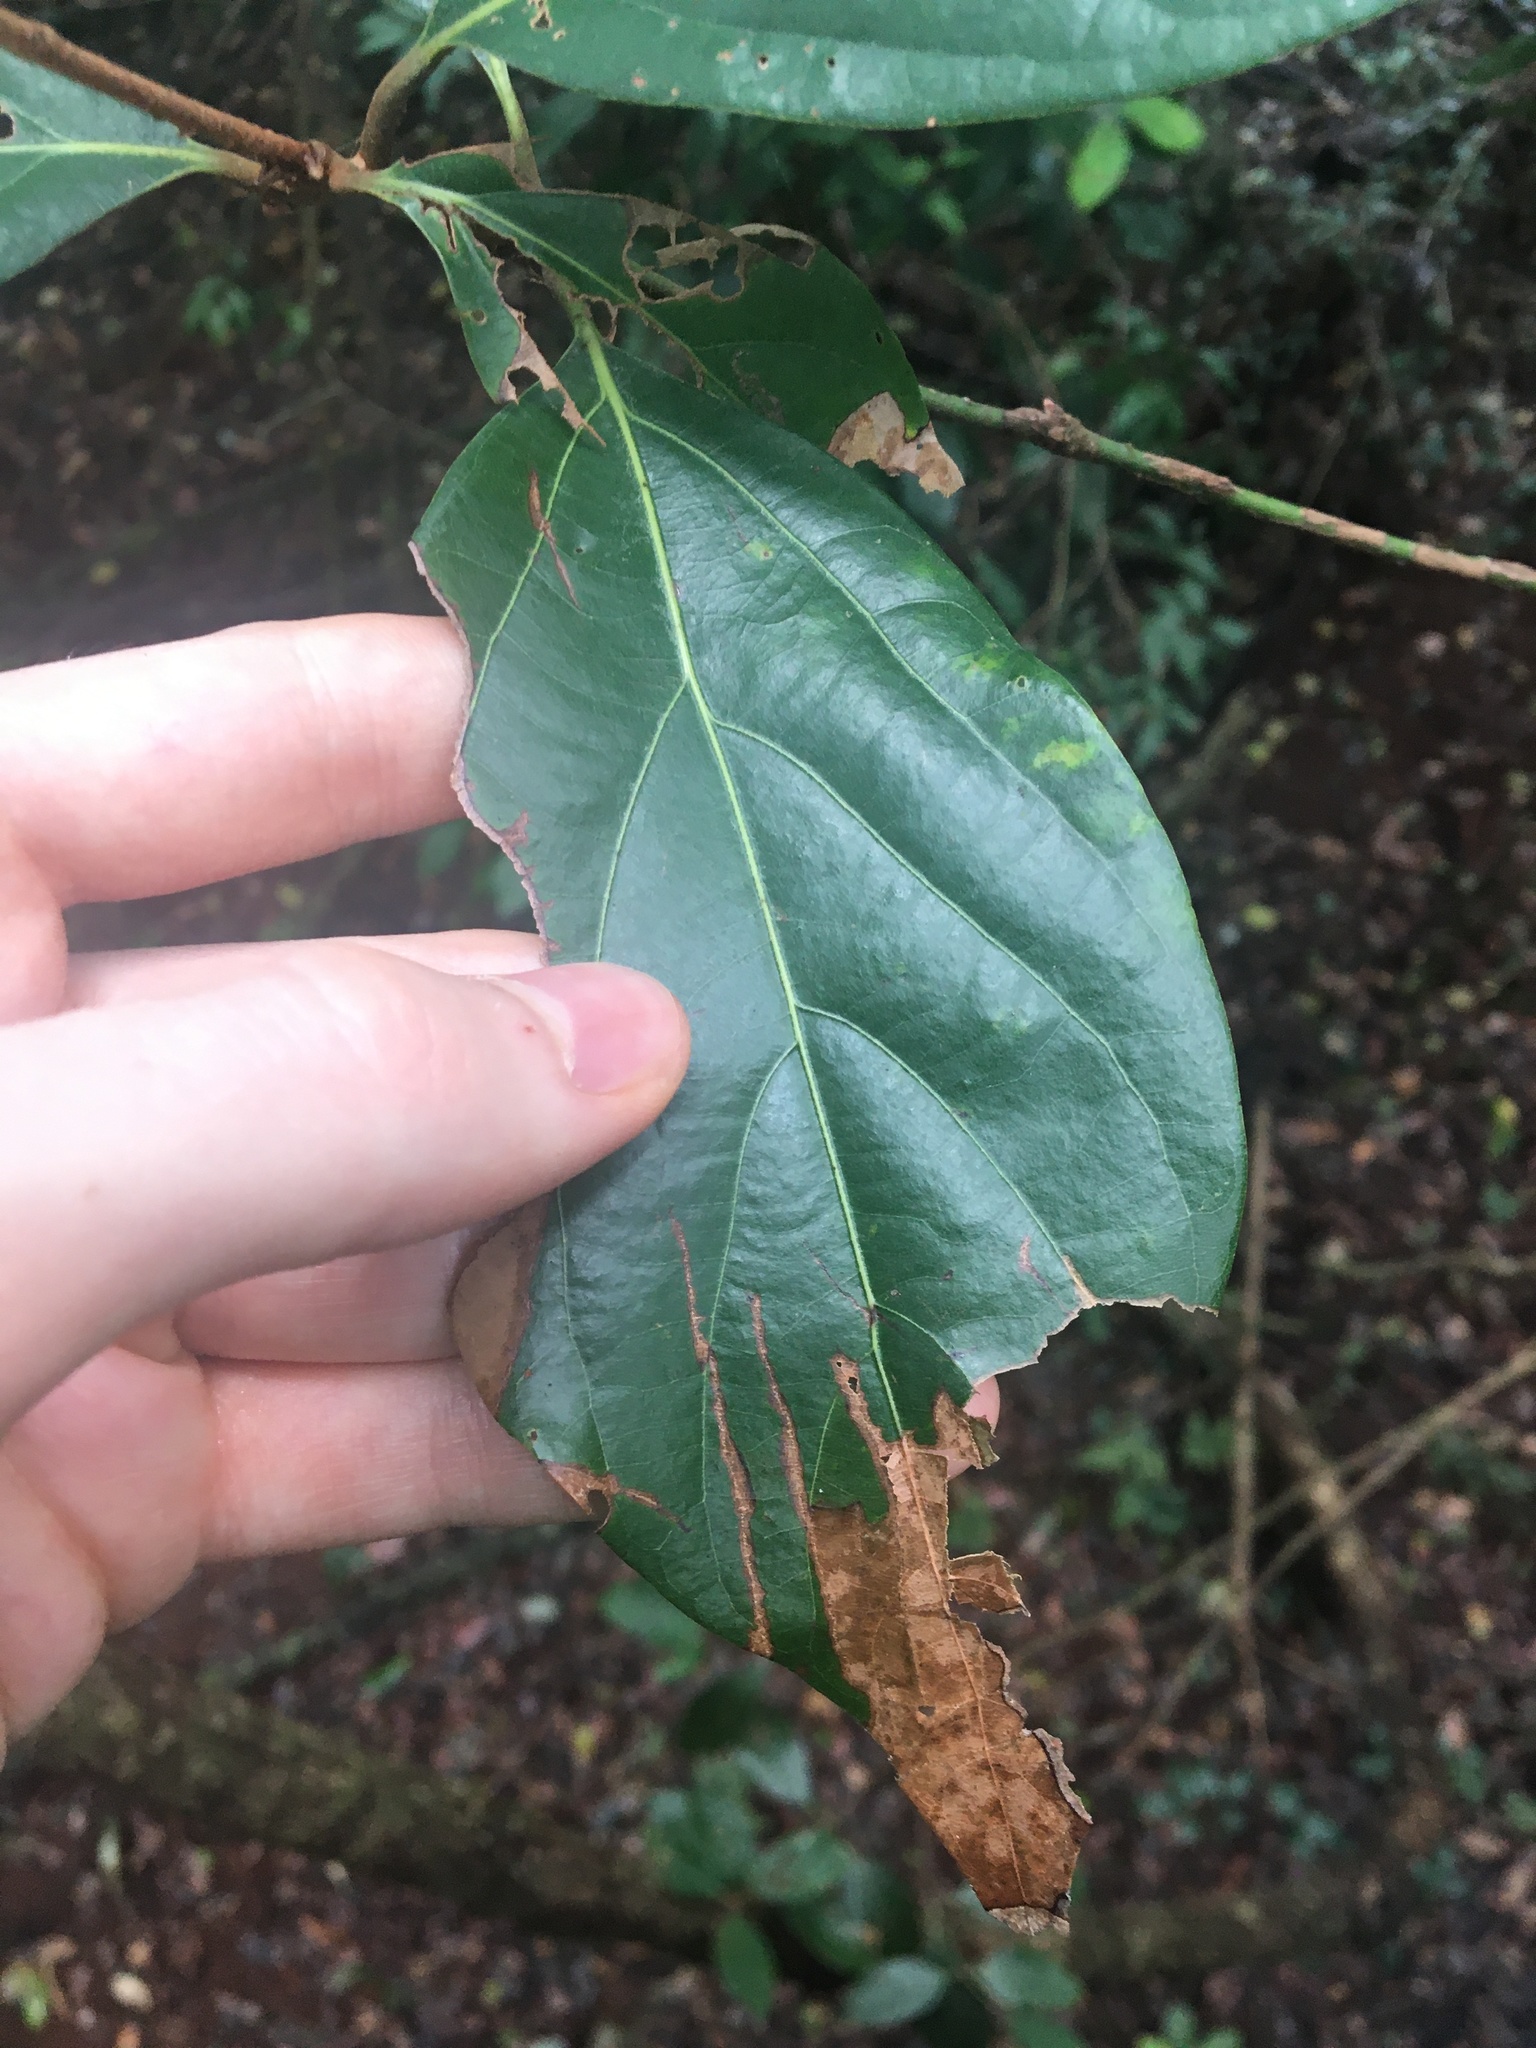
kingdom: Plantae
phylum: Tracheophyta
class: Magnoliopsida
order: Laurales
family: Lauraceae
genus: Neolitsea
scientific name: Neolitsea dealbata
